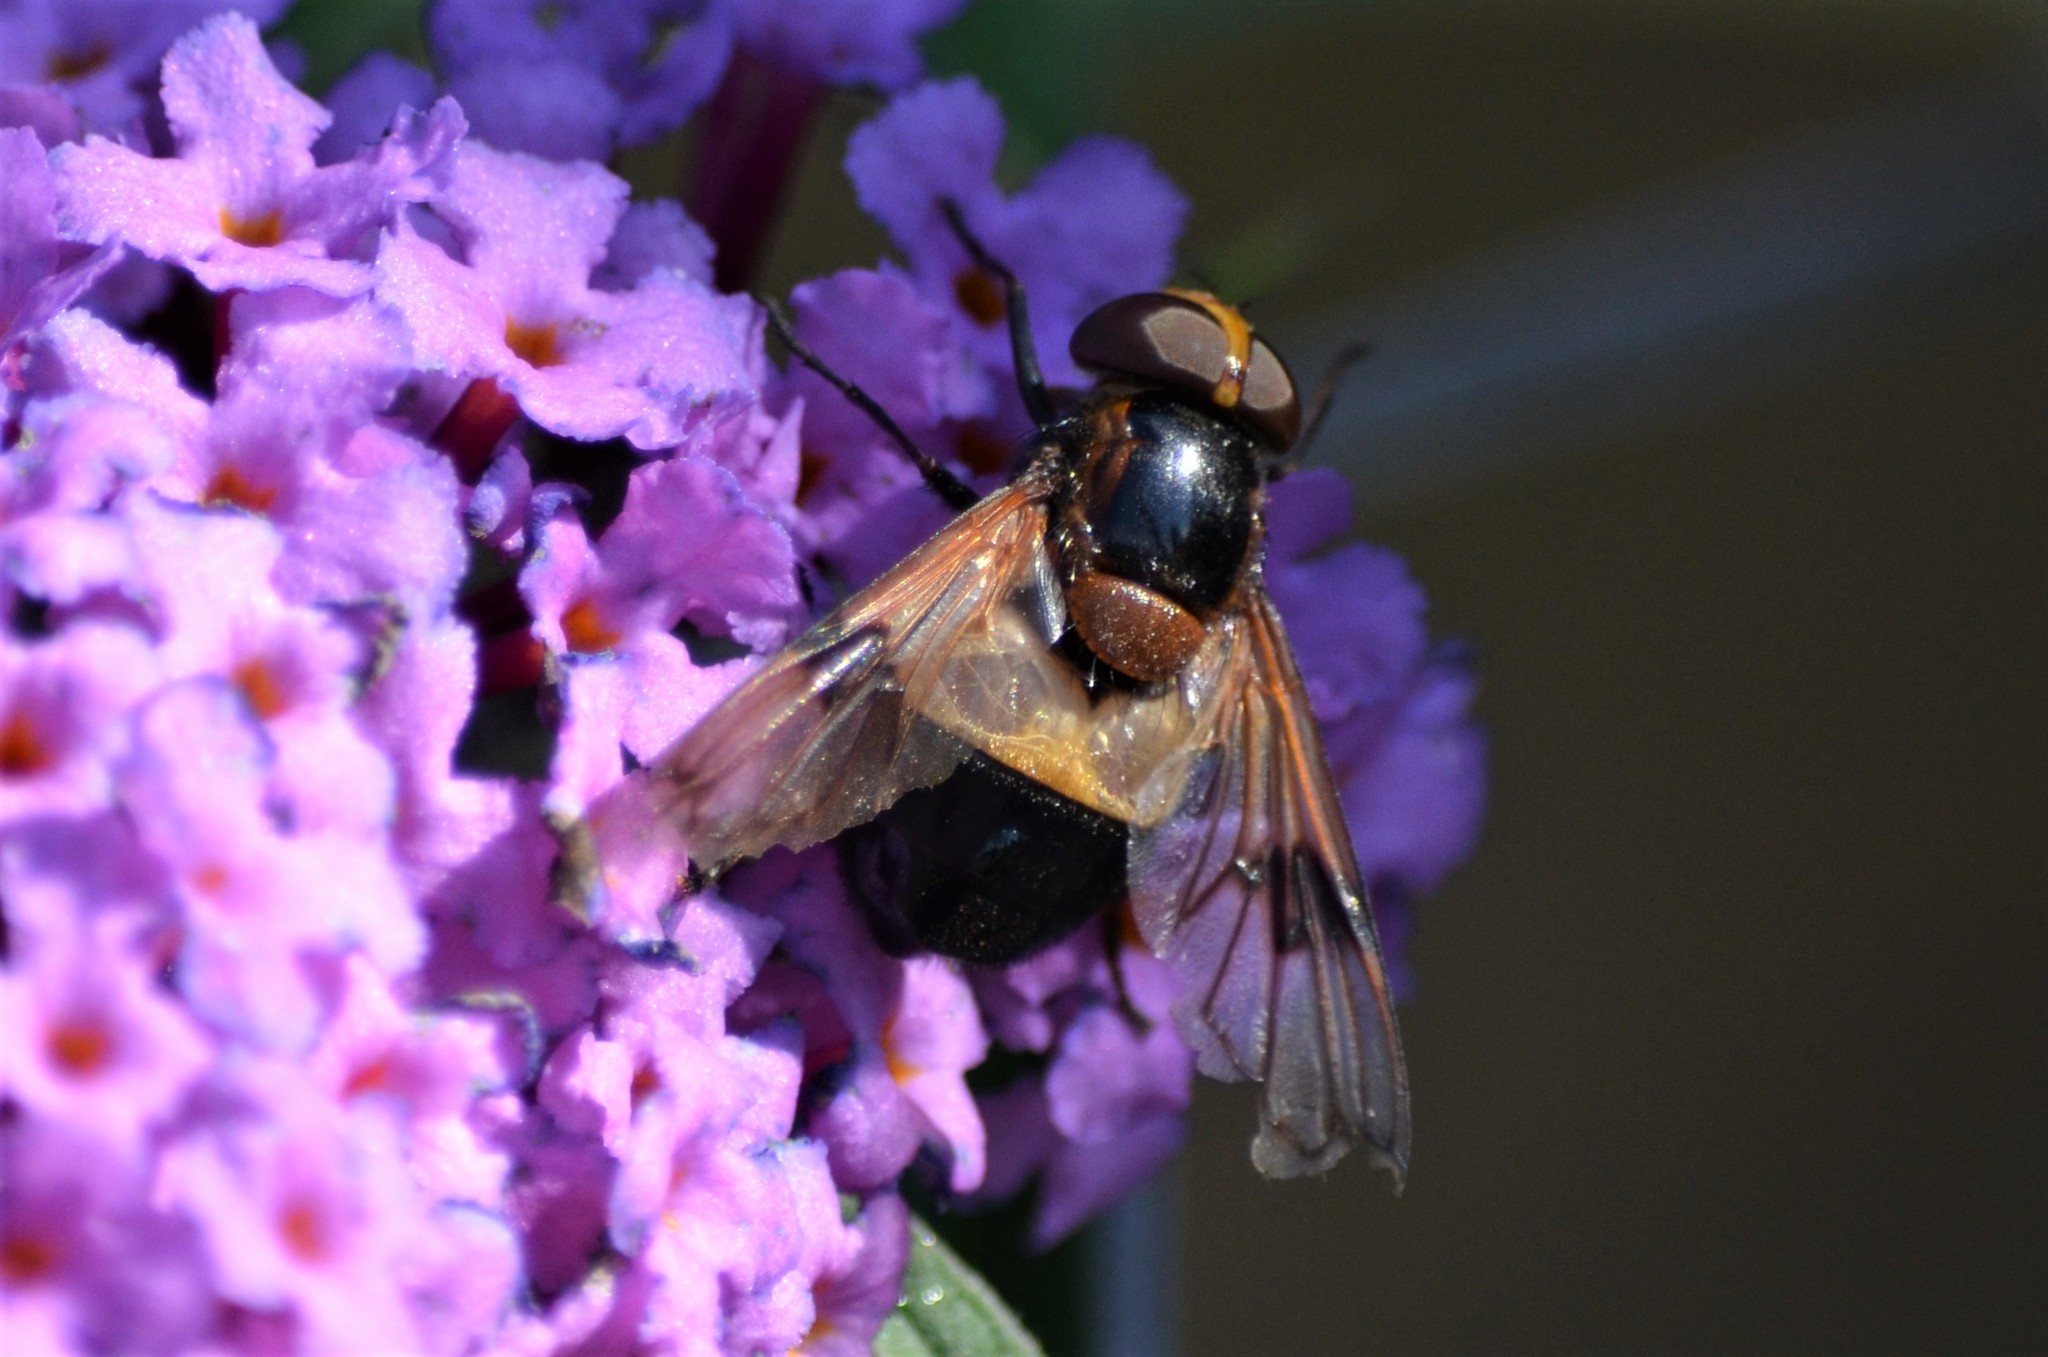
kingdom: Animalia
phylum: Arthropoda
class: Insecta
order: Diptera
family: Syrphidae
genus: Volucella
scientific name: Volucella pellucens
